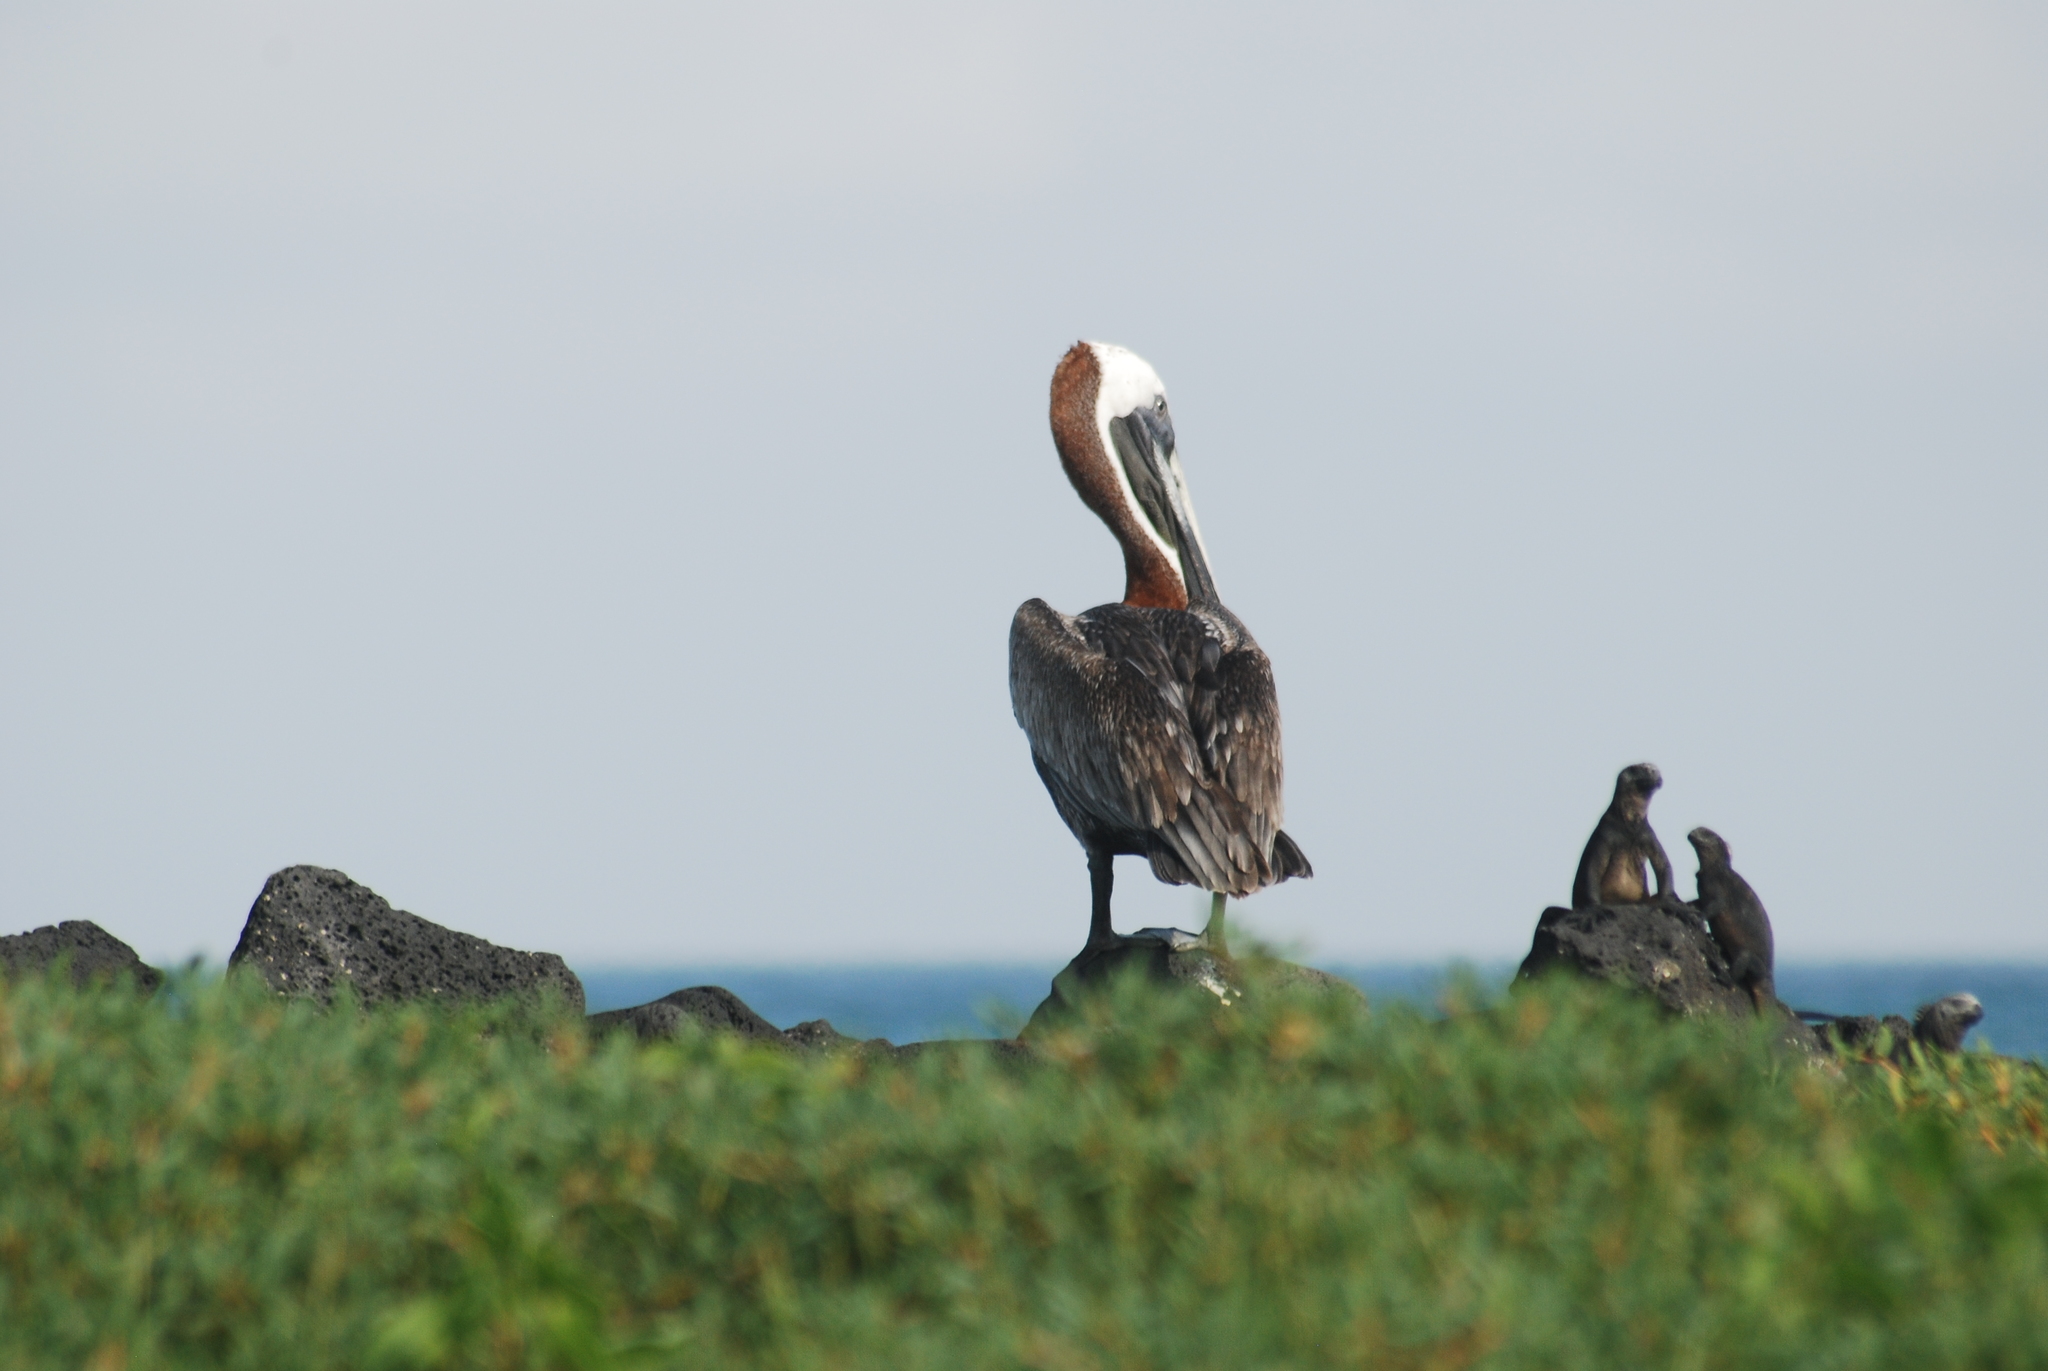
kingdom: Animalia
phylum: Chordata
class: Aves
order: Pelecaniformes
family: Pelecanidae
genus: Pelecanus
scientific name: Pelecanus occidentalis
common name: Brown pelican
